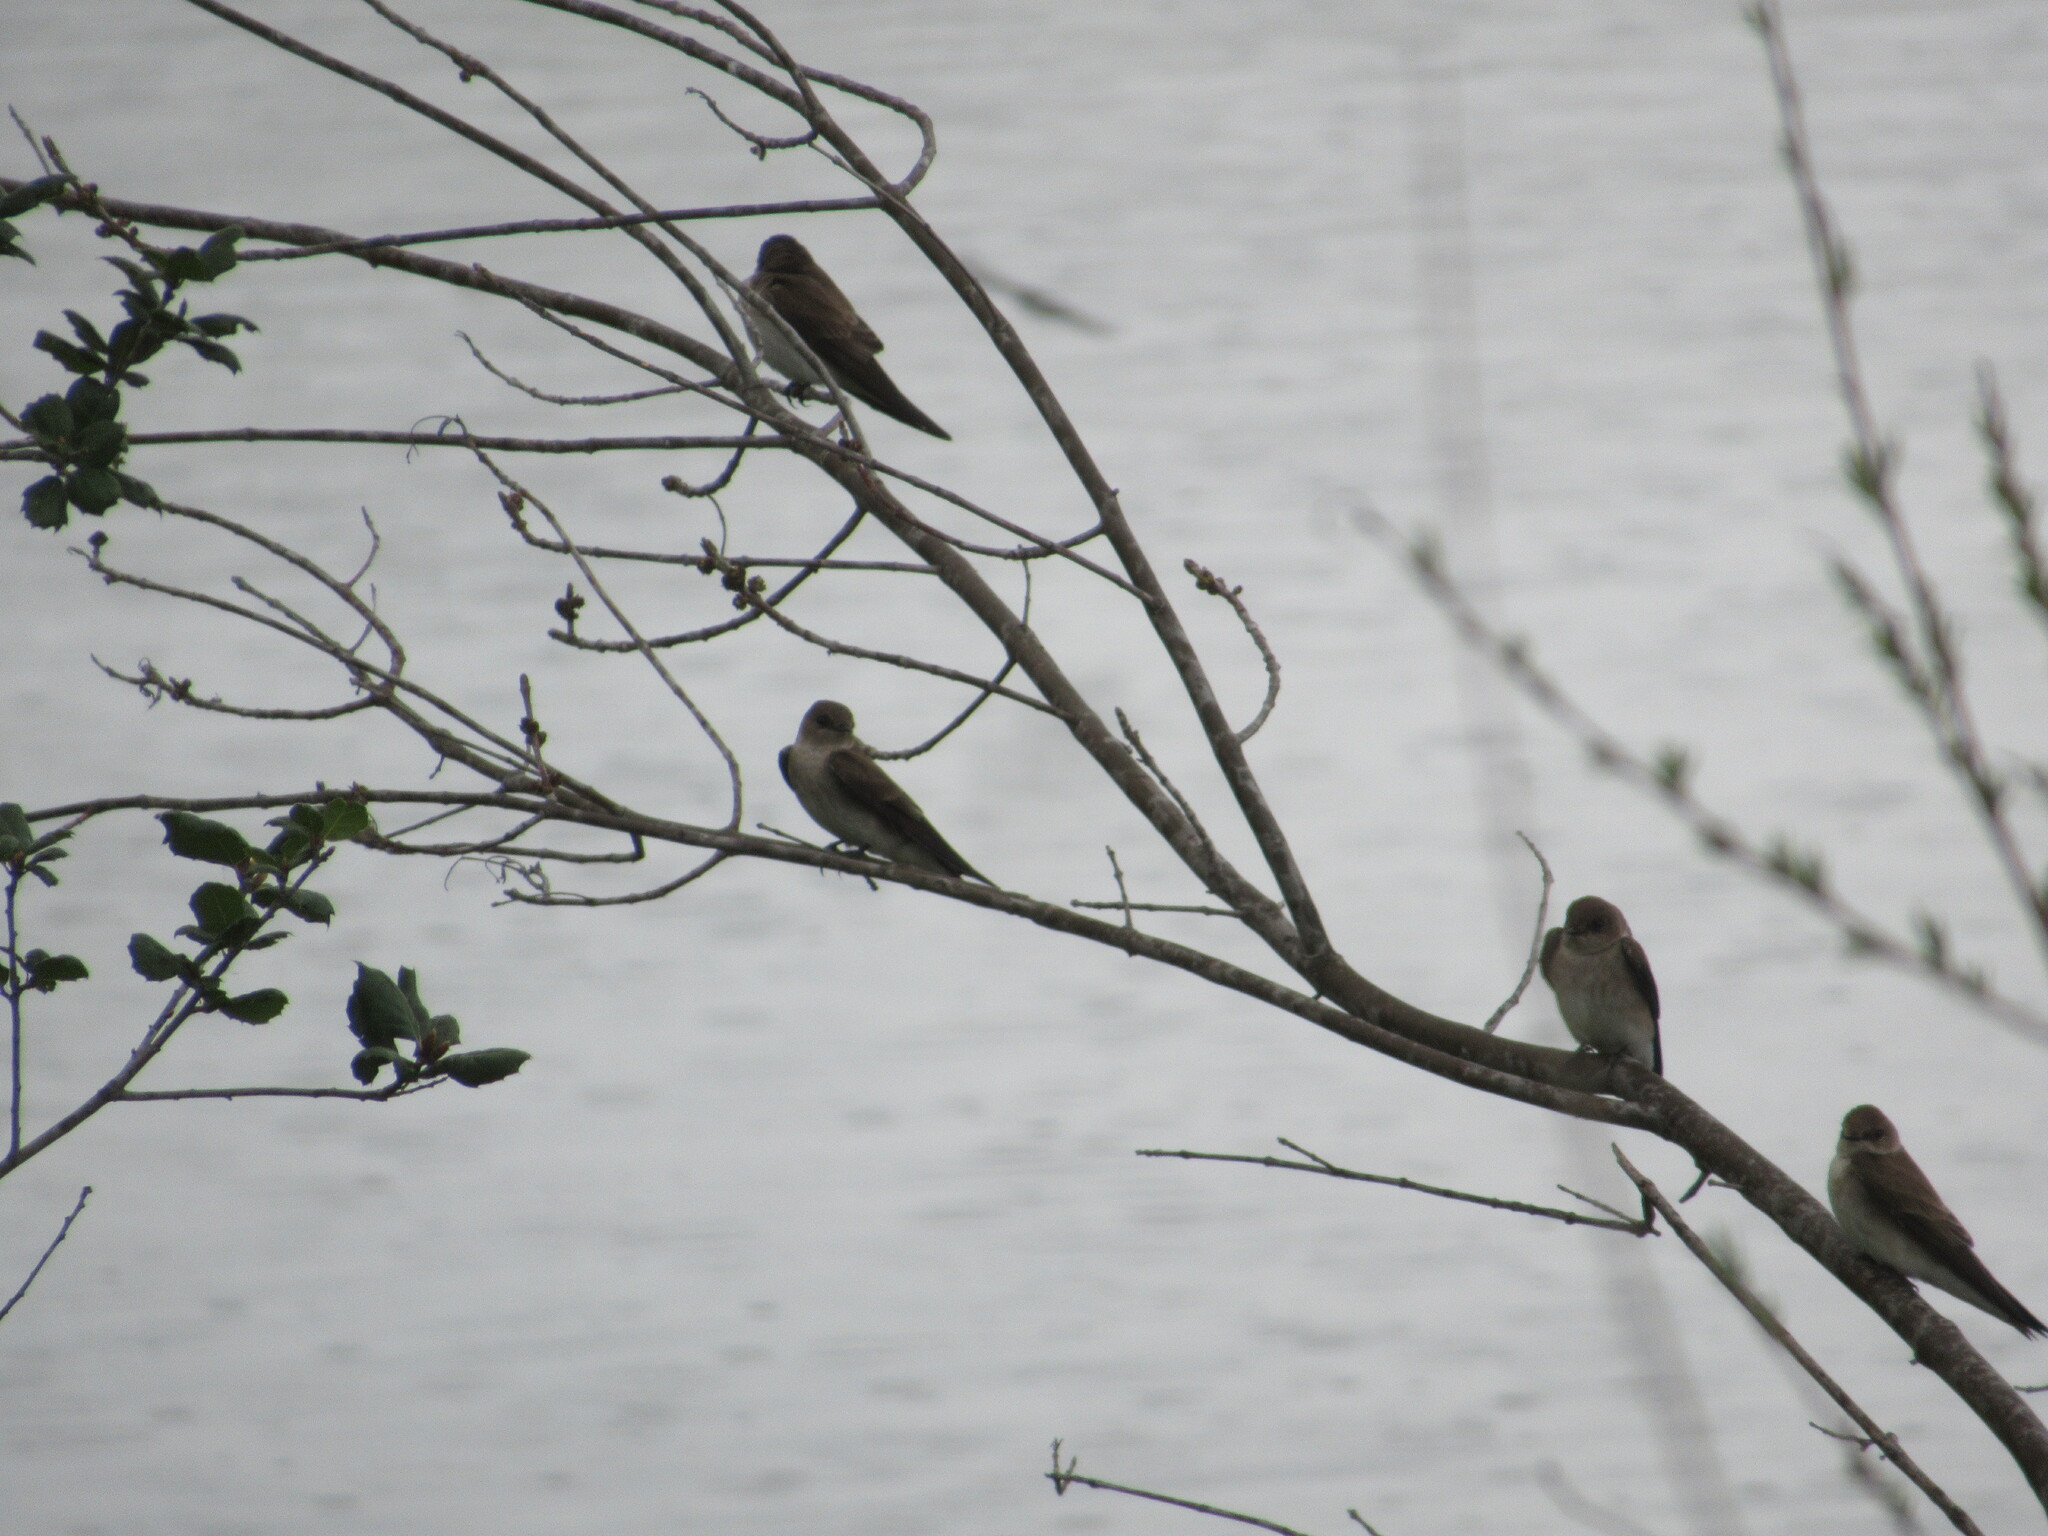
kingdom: Animalia
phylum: Chordata
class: Aves
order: Passeriformes
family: Hirundinidae
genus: Stelgidopteryx
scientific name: Stelgidopteryx serripennis
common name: Northern rough-winged swallow
